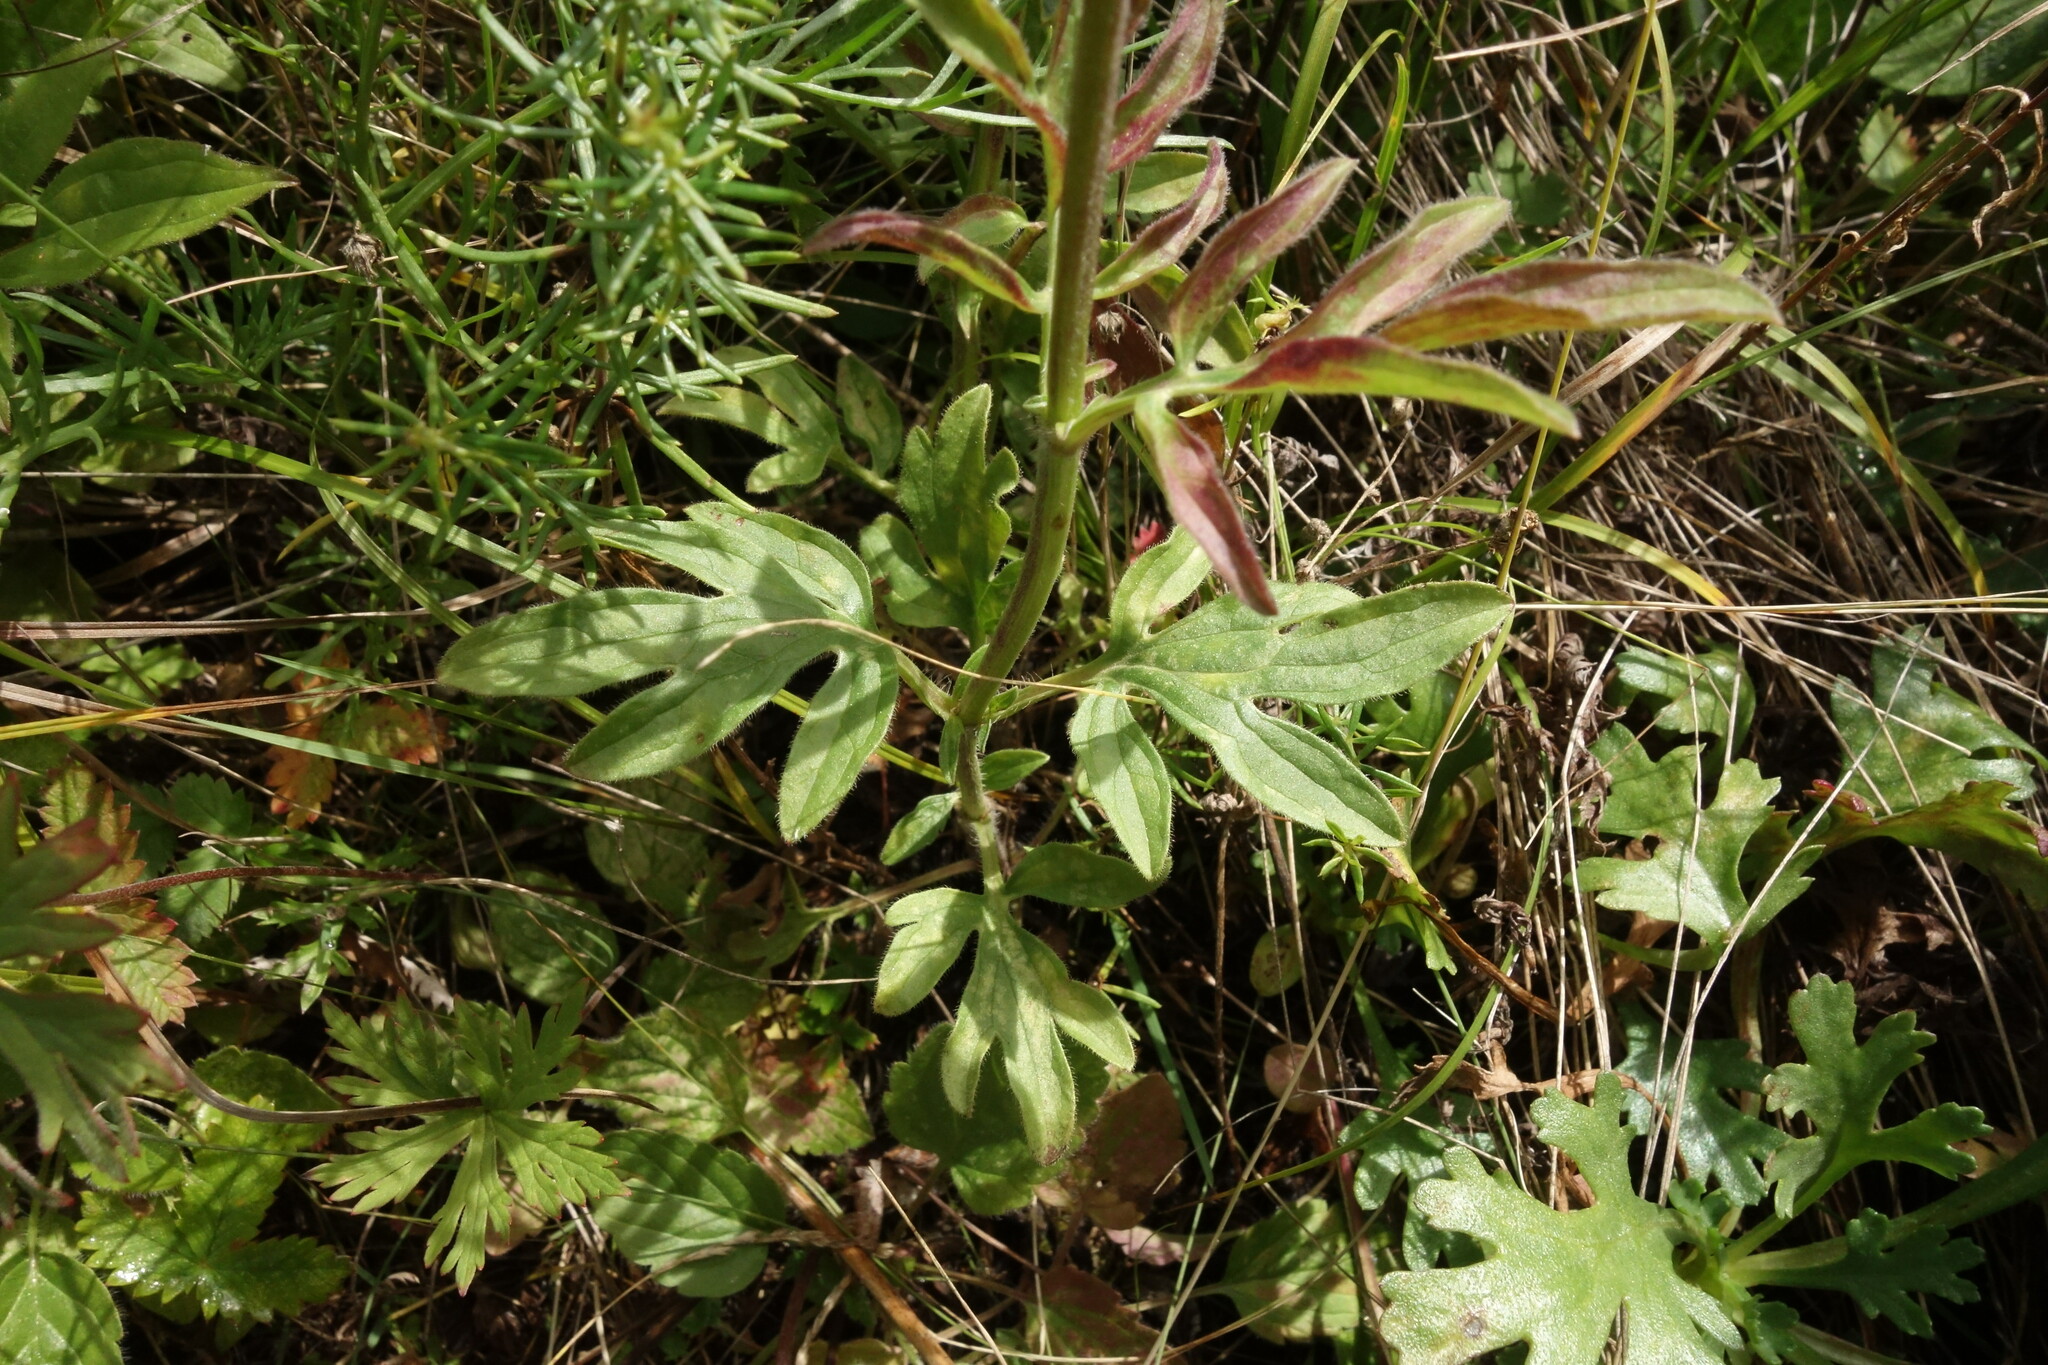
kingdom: Plantae
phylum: Tracheophyta
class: Magnoliopsida
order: Lamiales
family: Lamiaceae
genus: Nepeta
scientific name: Nepeta multifida
